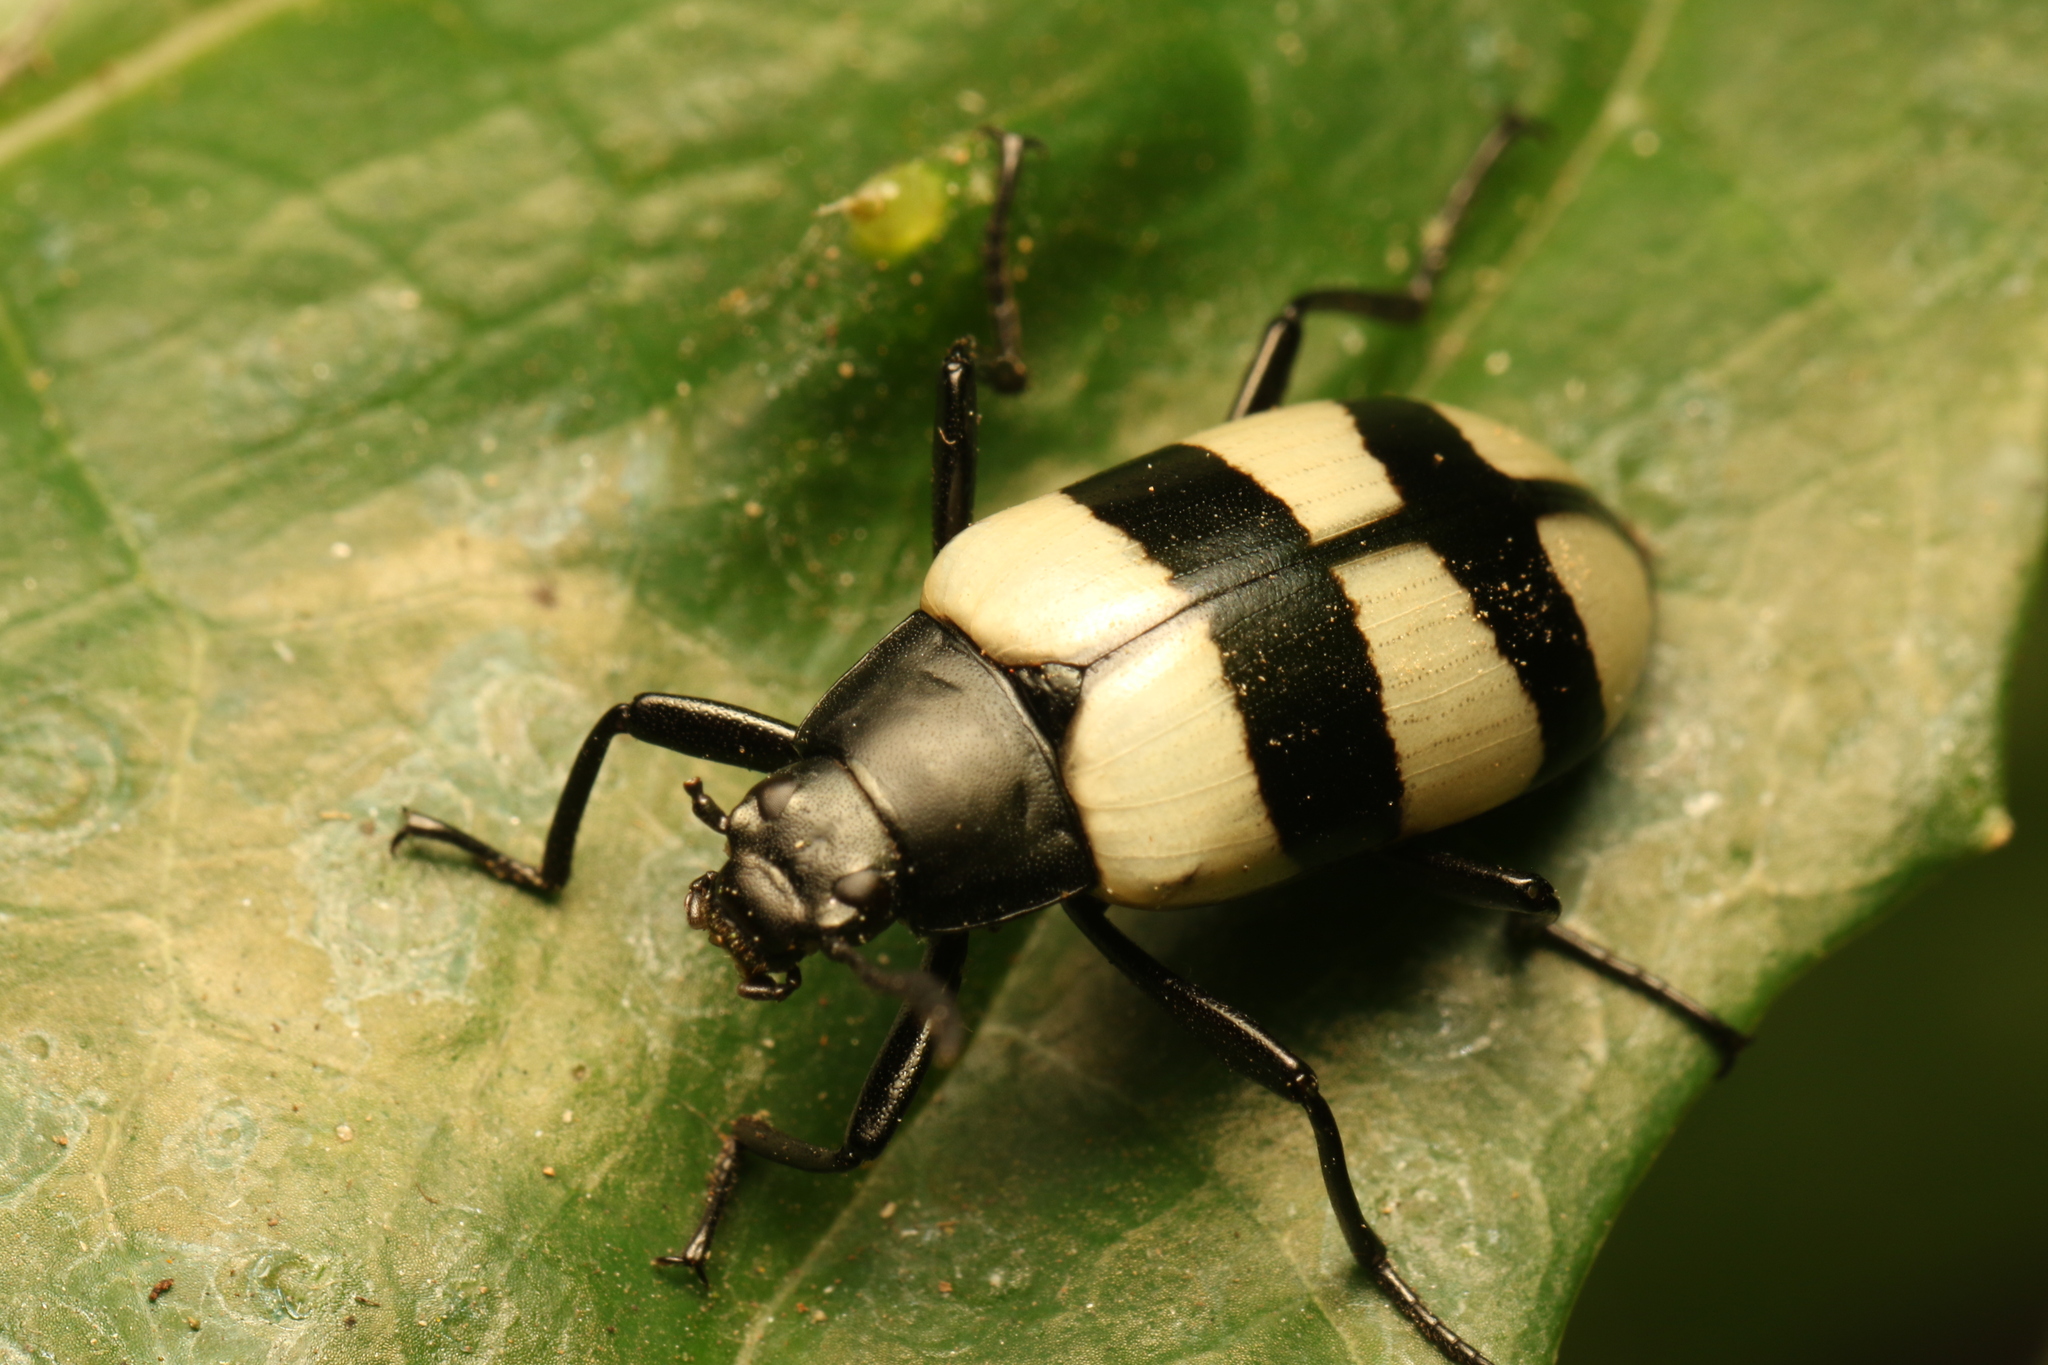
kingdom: Animalia
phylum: Arthropoda
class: Insecta
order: Coleoptera
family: Tenebrionidae
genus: Poecilesthus
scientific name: Poecilesthus
